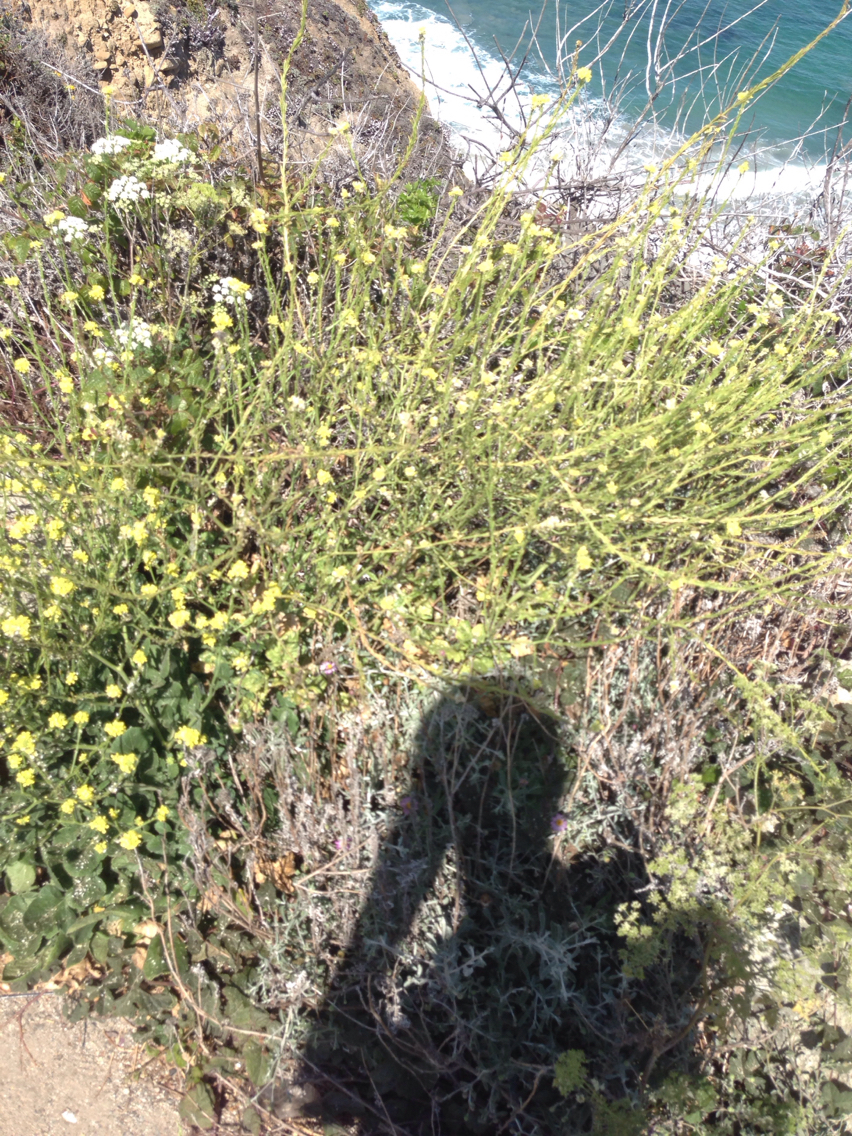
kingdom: Plantae
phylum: Tracheophyta
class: Magnoliopsida
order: Brassicales
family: Brassicaceae
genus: Hirschfeldia
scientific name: Hirschfeldia incana
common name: Hoary mustard
